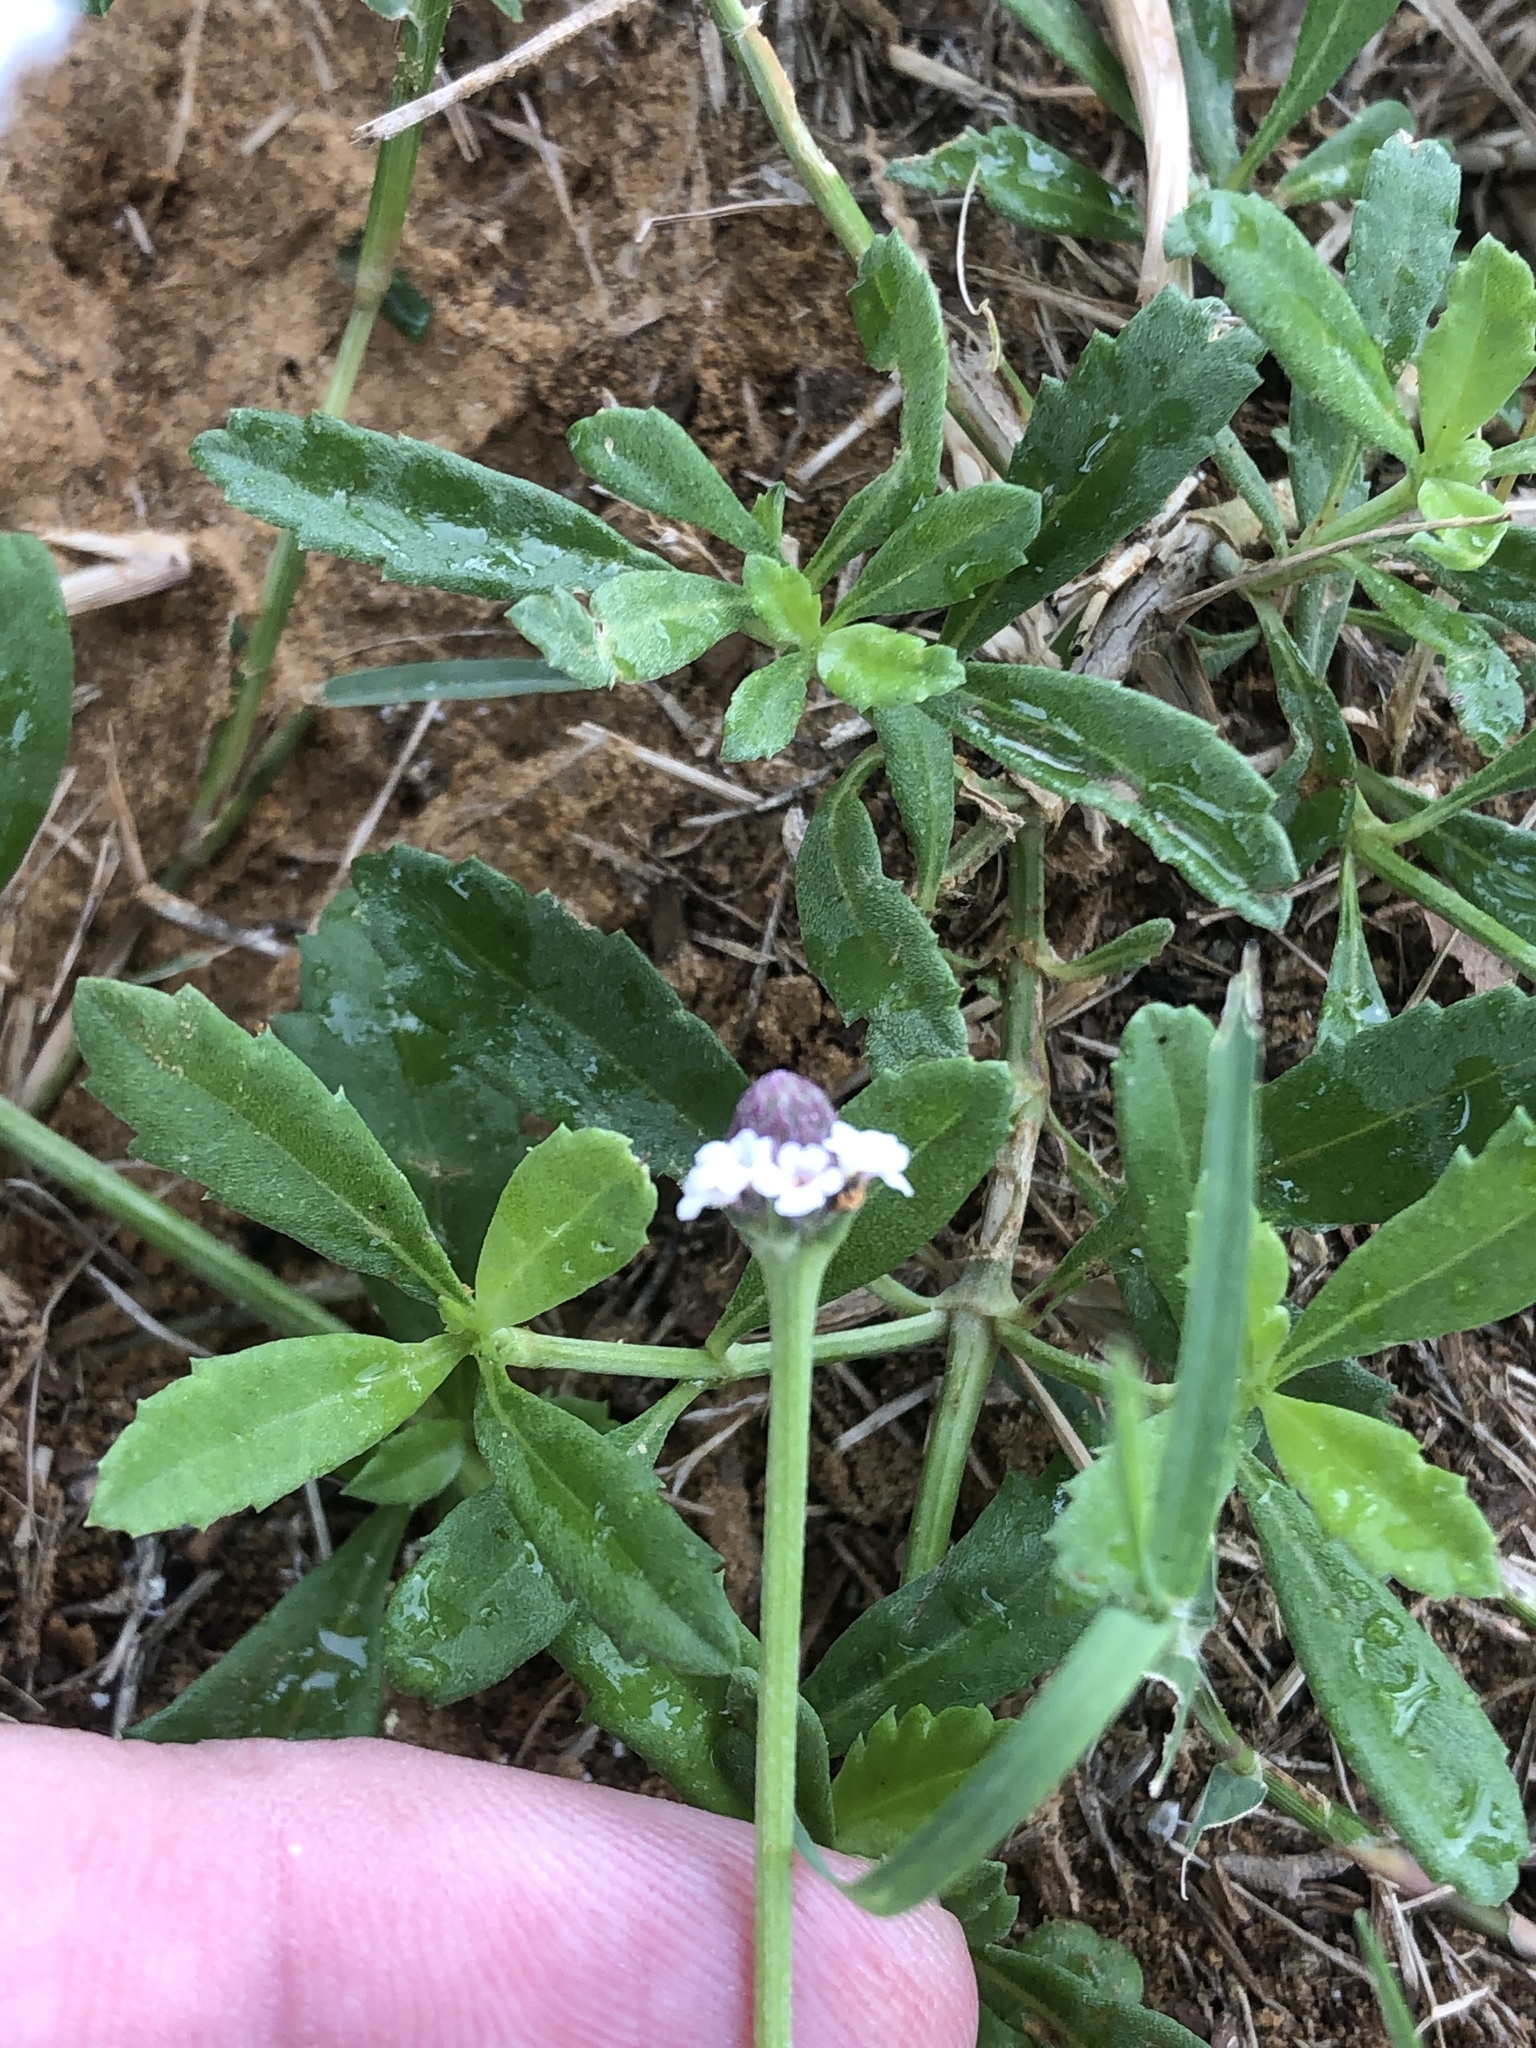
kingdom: Plantae
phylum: Tracheophyta
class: Magnoliopsida
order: Lamiales
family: Verbenaceae
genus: Phyla
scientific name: Phyla nodiflora
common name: Frogfruit
